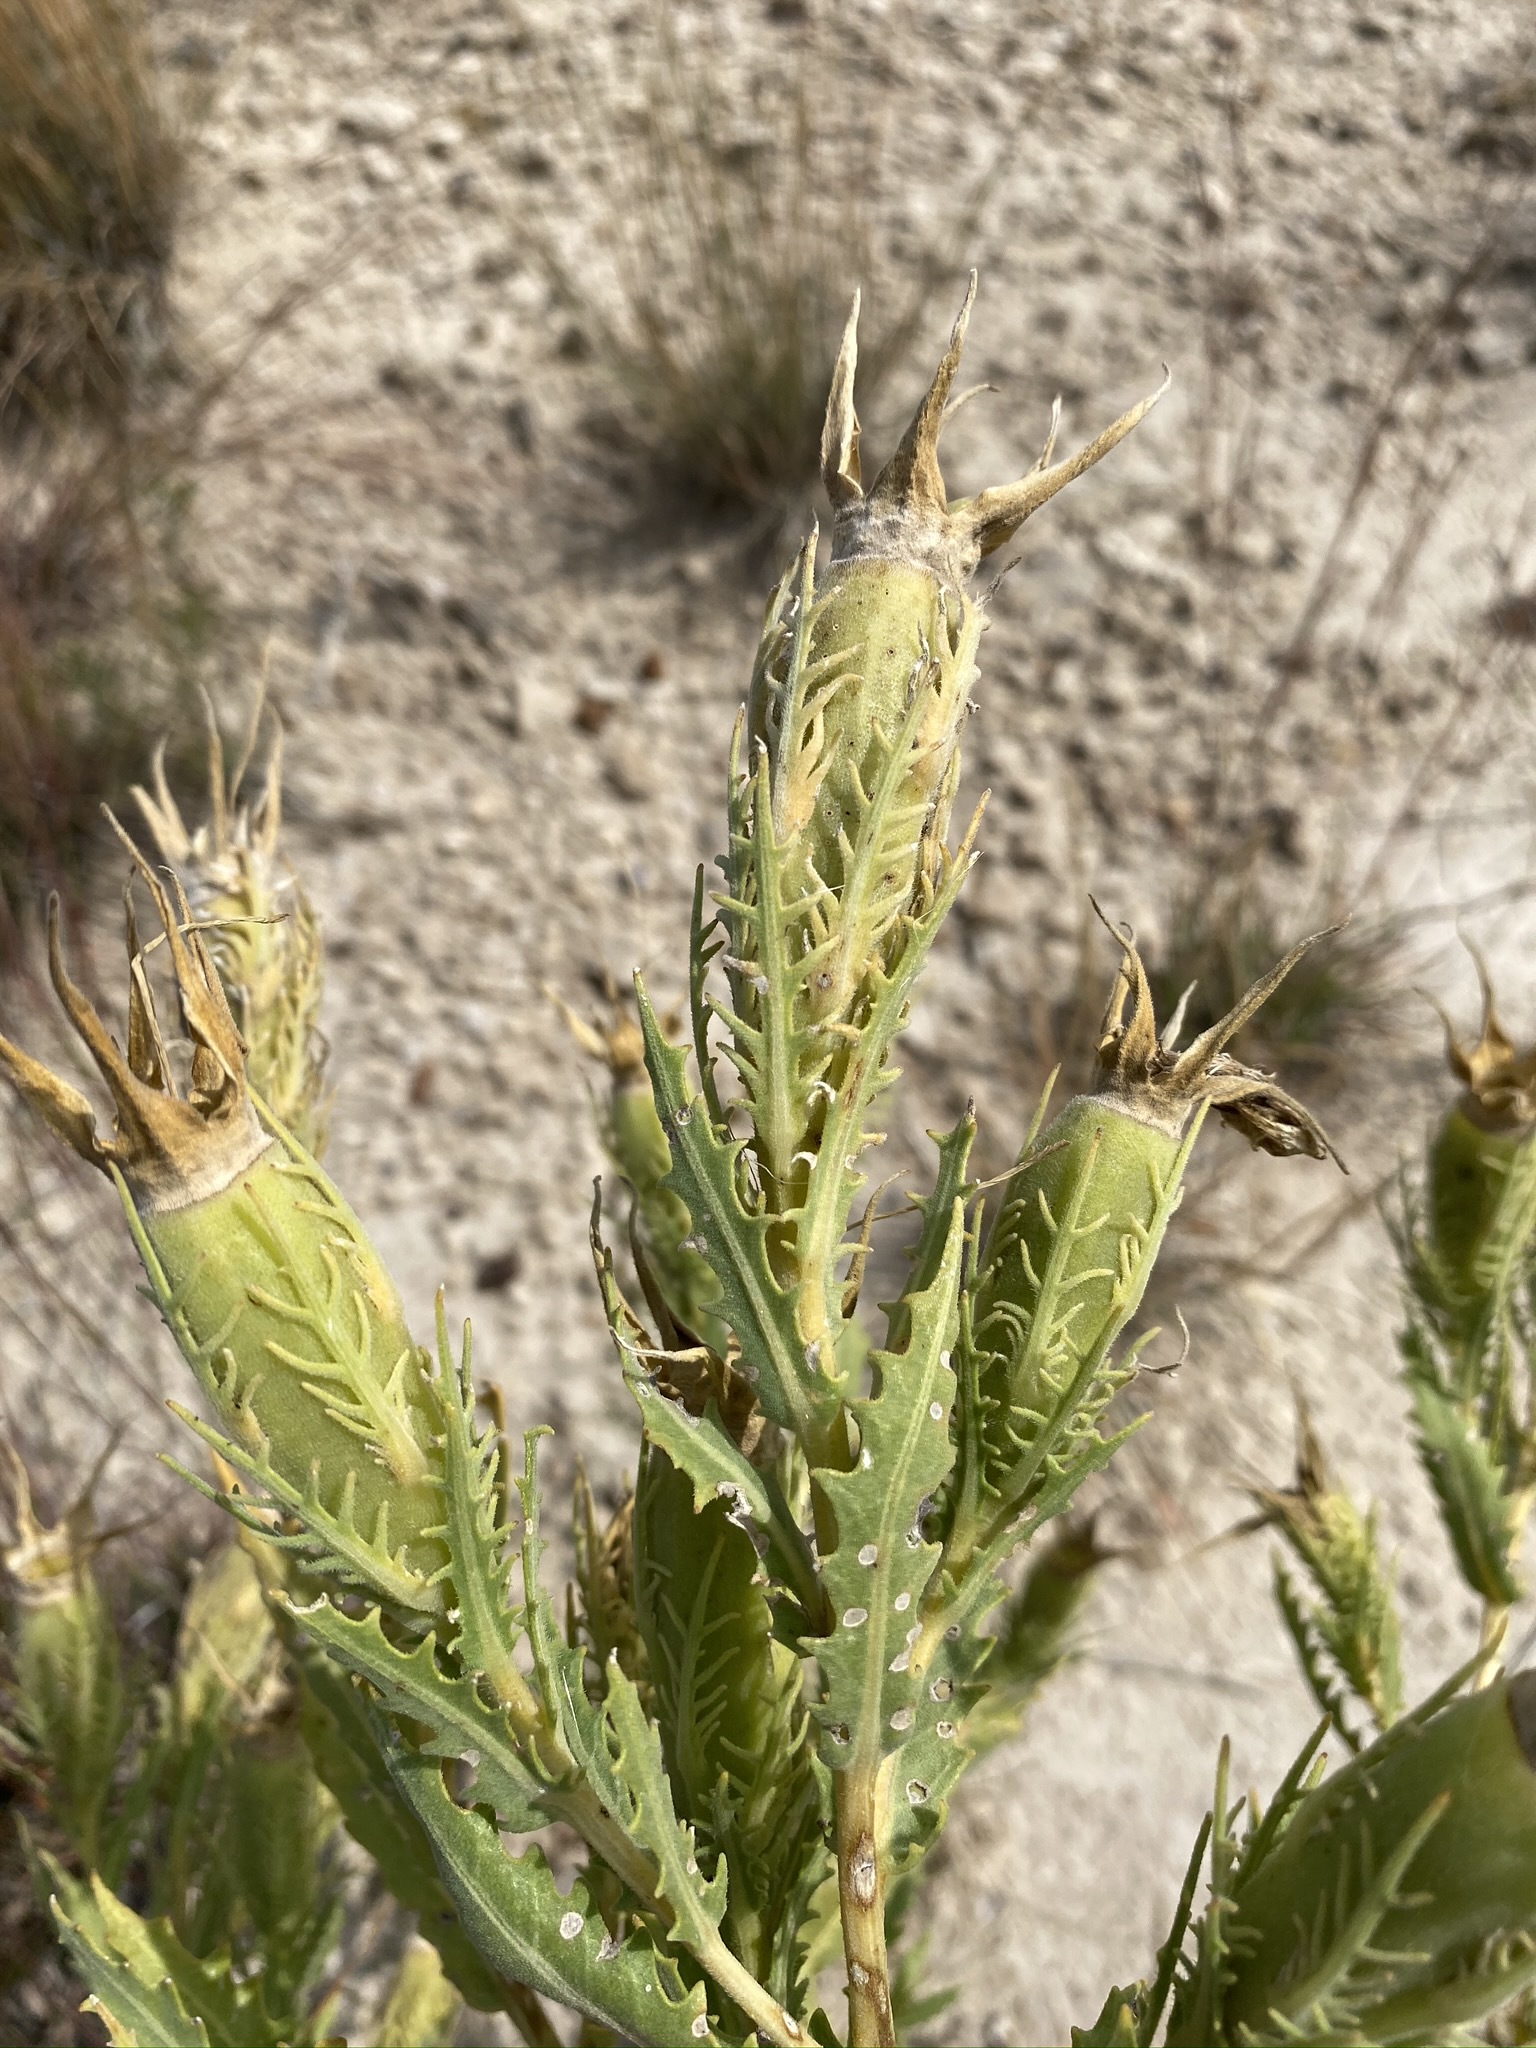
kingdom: Plantae
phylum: Tracheophyta
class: Magnoliopsida
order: Cornales
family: Loasaceae
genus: Mentzelia
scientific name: Mentzelia nuda
